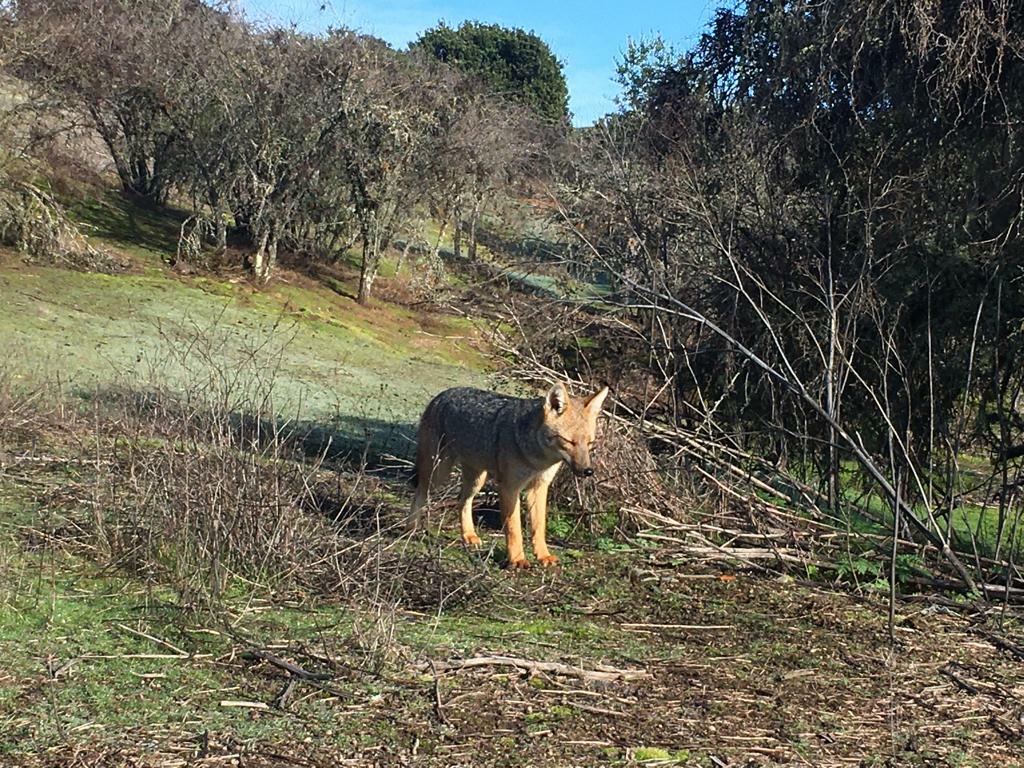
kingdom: Animalia
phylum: Chordata
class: Mammalia
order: Carnivora
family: Canidae
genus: Lycalopex
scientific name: Lycalopex culpaeus
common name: Culpeo
